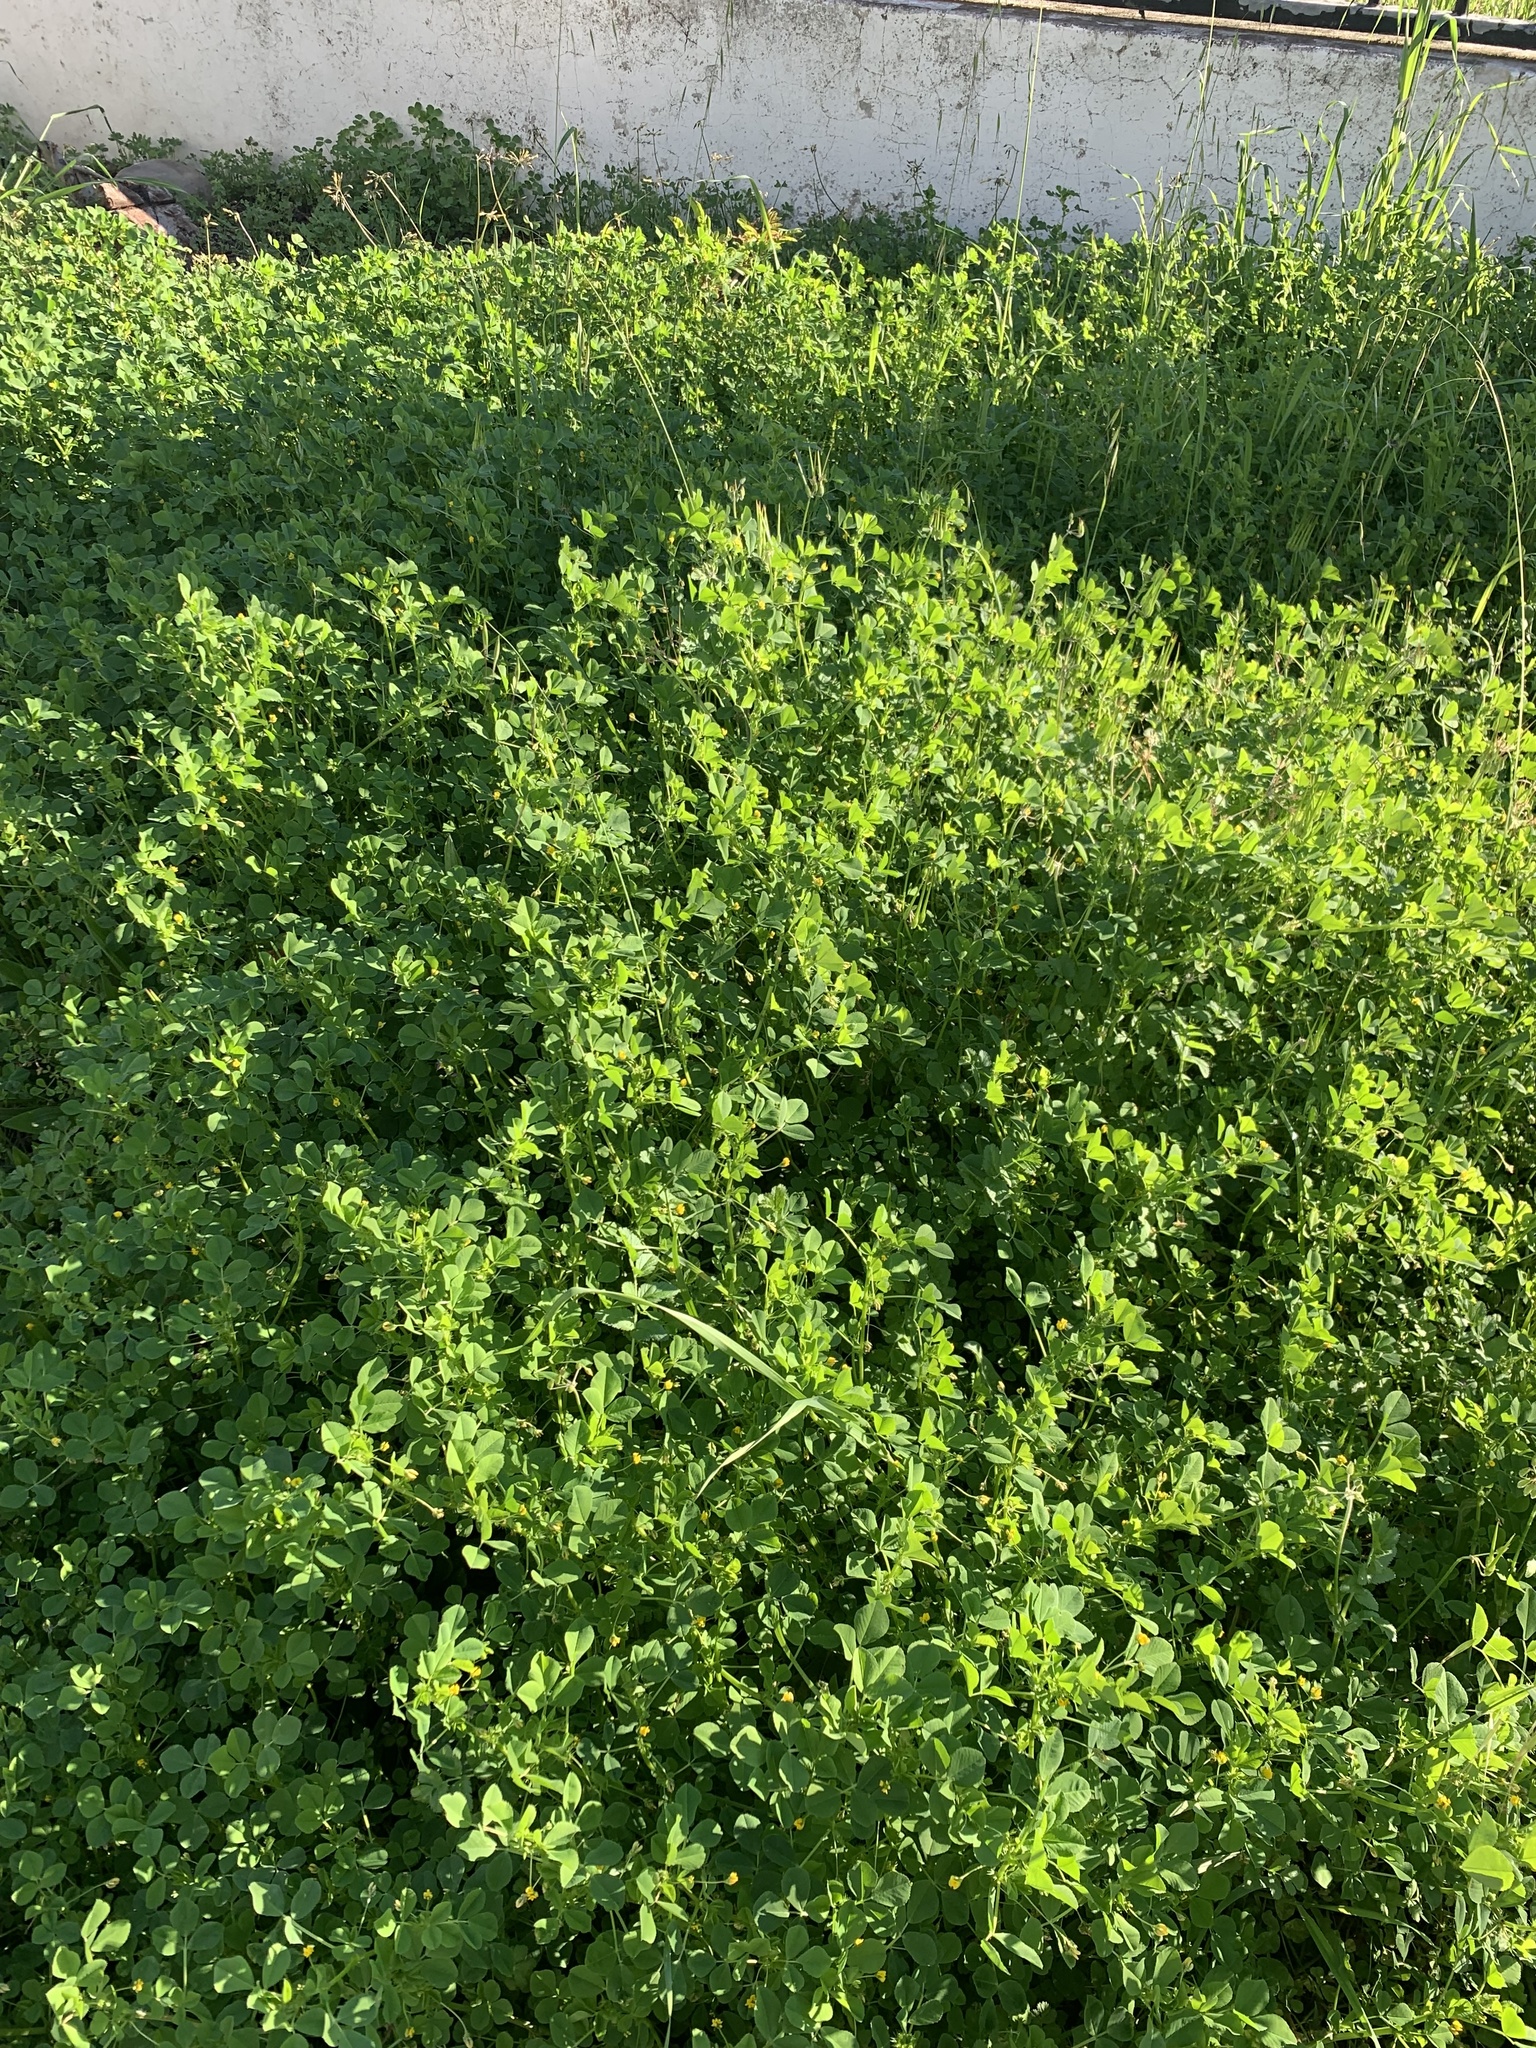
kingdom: Plantae
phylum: Tracheophyta
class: Magnoliopsida
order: Fabales
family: Fabaceae
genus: Medicago
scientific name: Medicago polymorpha
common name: Burclover
